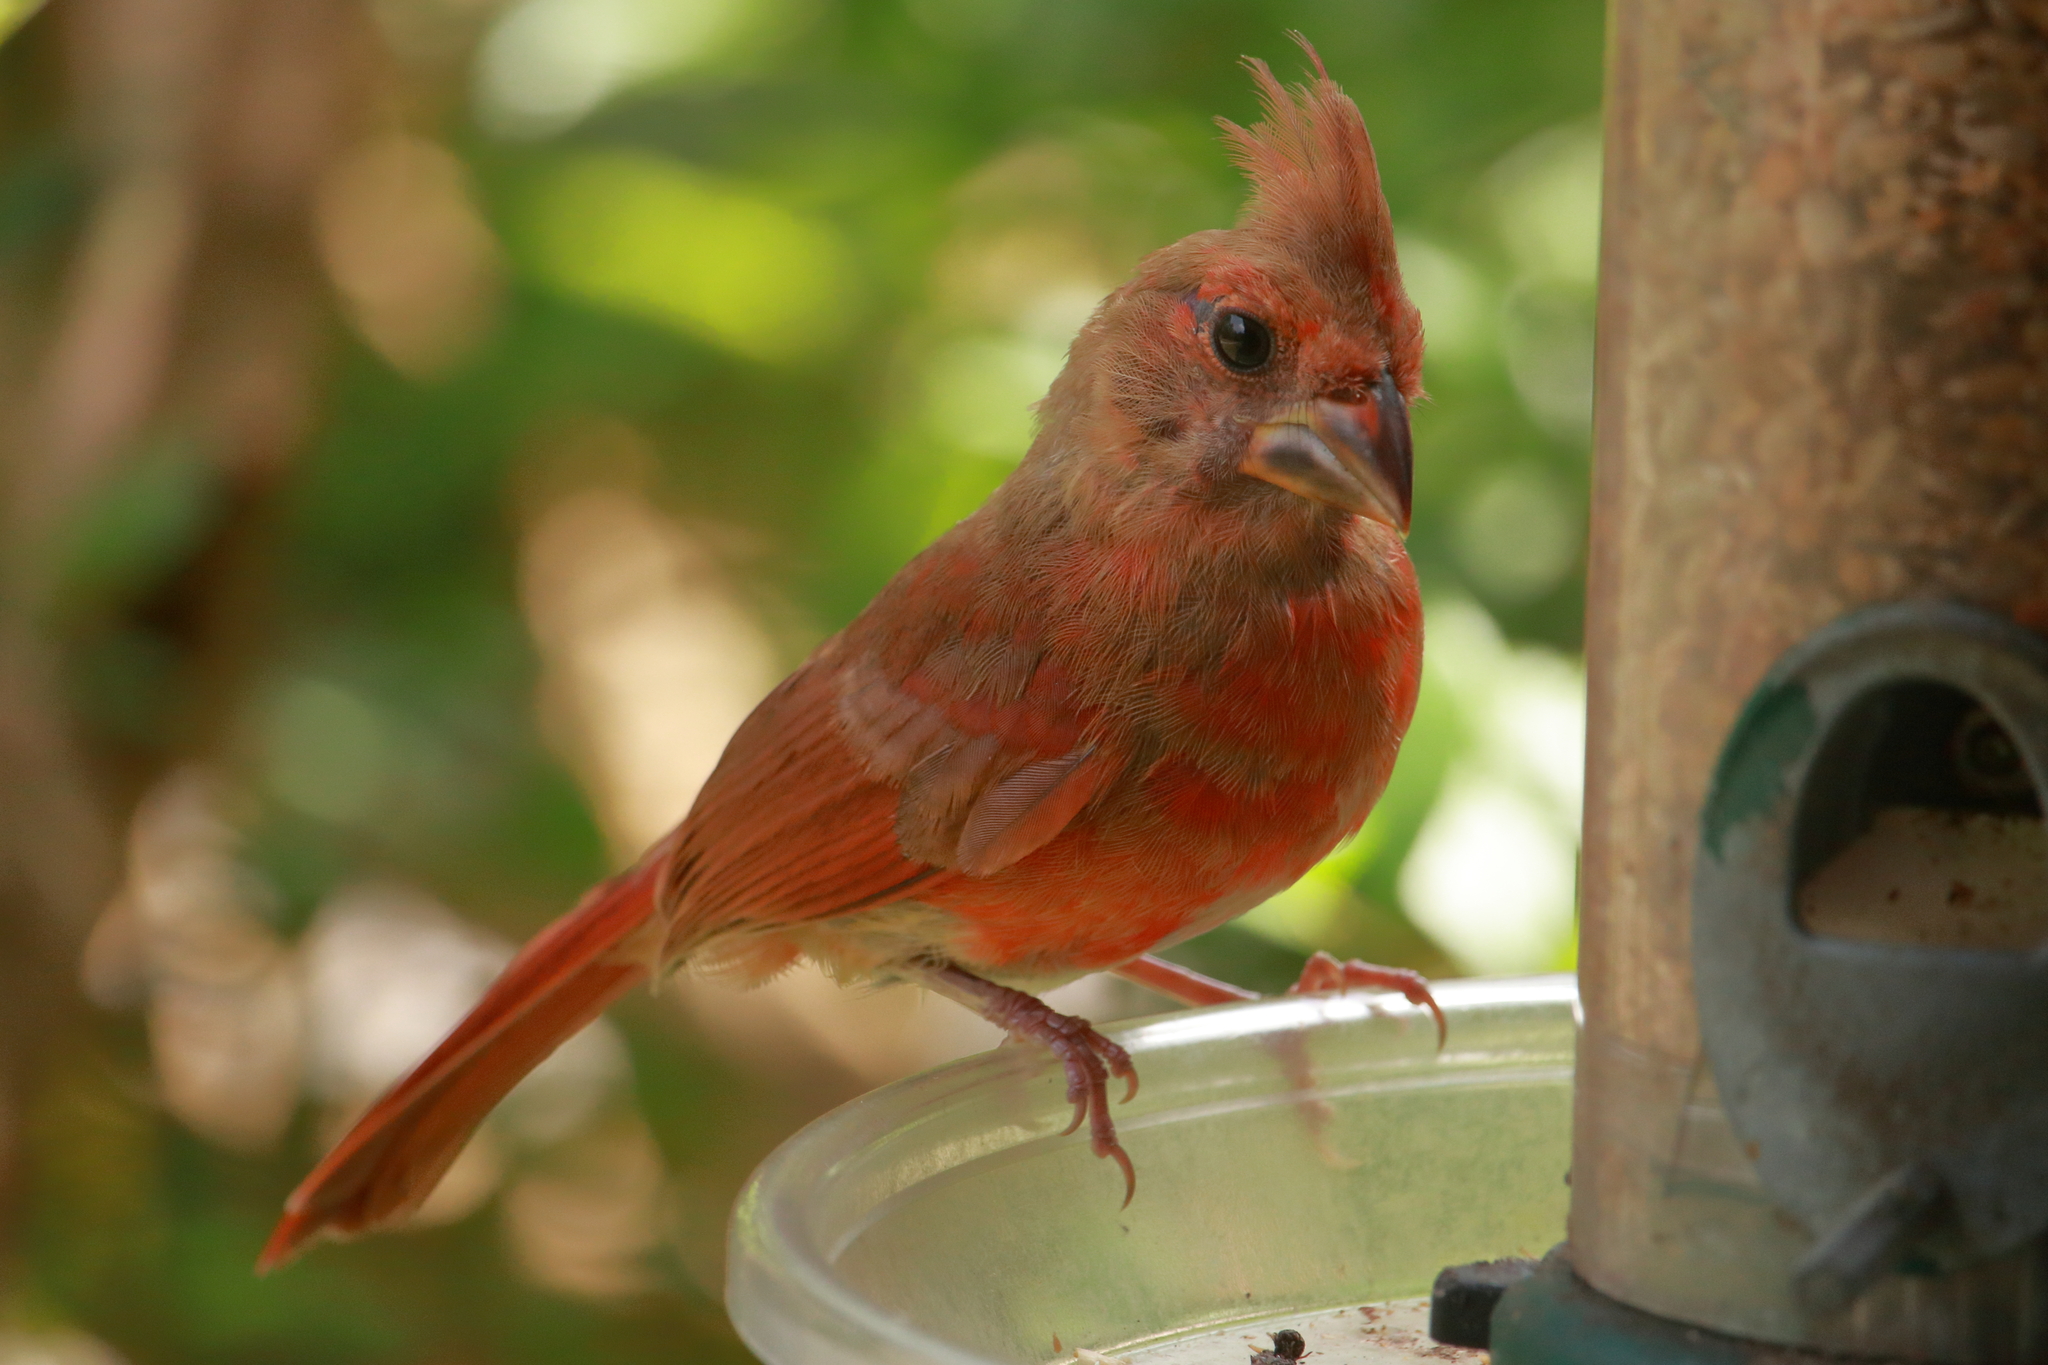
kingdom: Animalia
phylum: Chordata
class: Aves
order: Passeriformes
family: Cardinalidae
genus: Cardinalis
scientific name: Cardinalis cardinalis
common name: Northern cardinal
